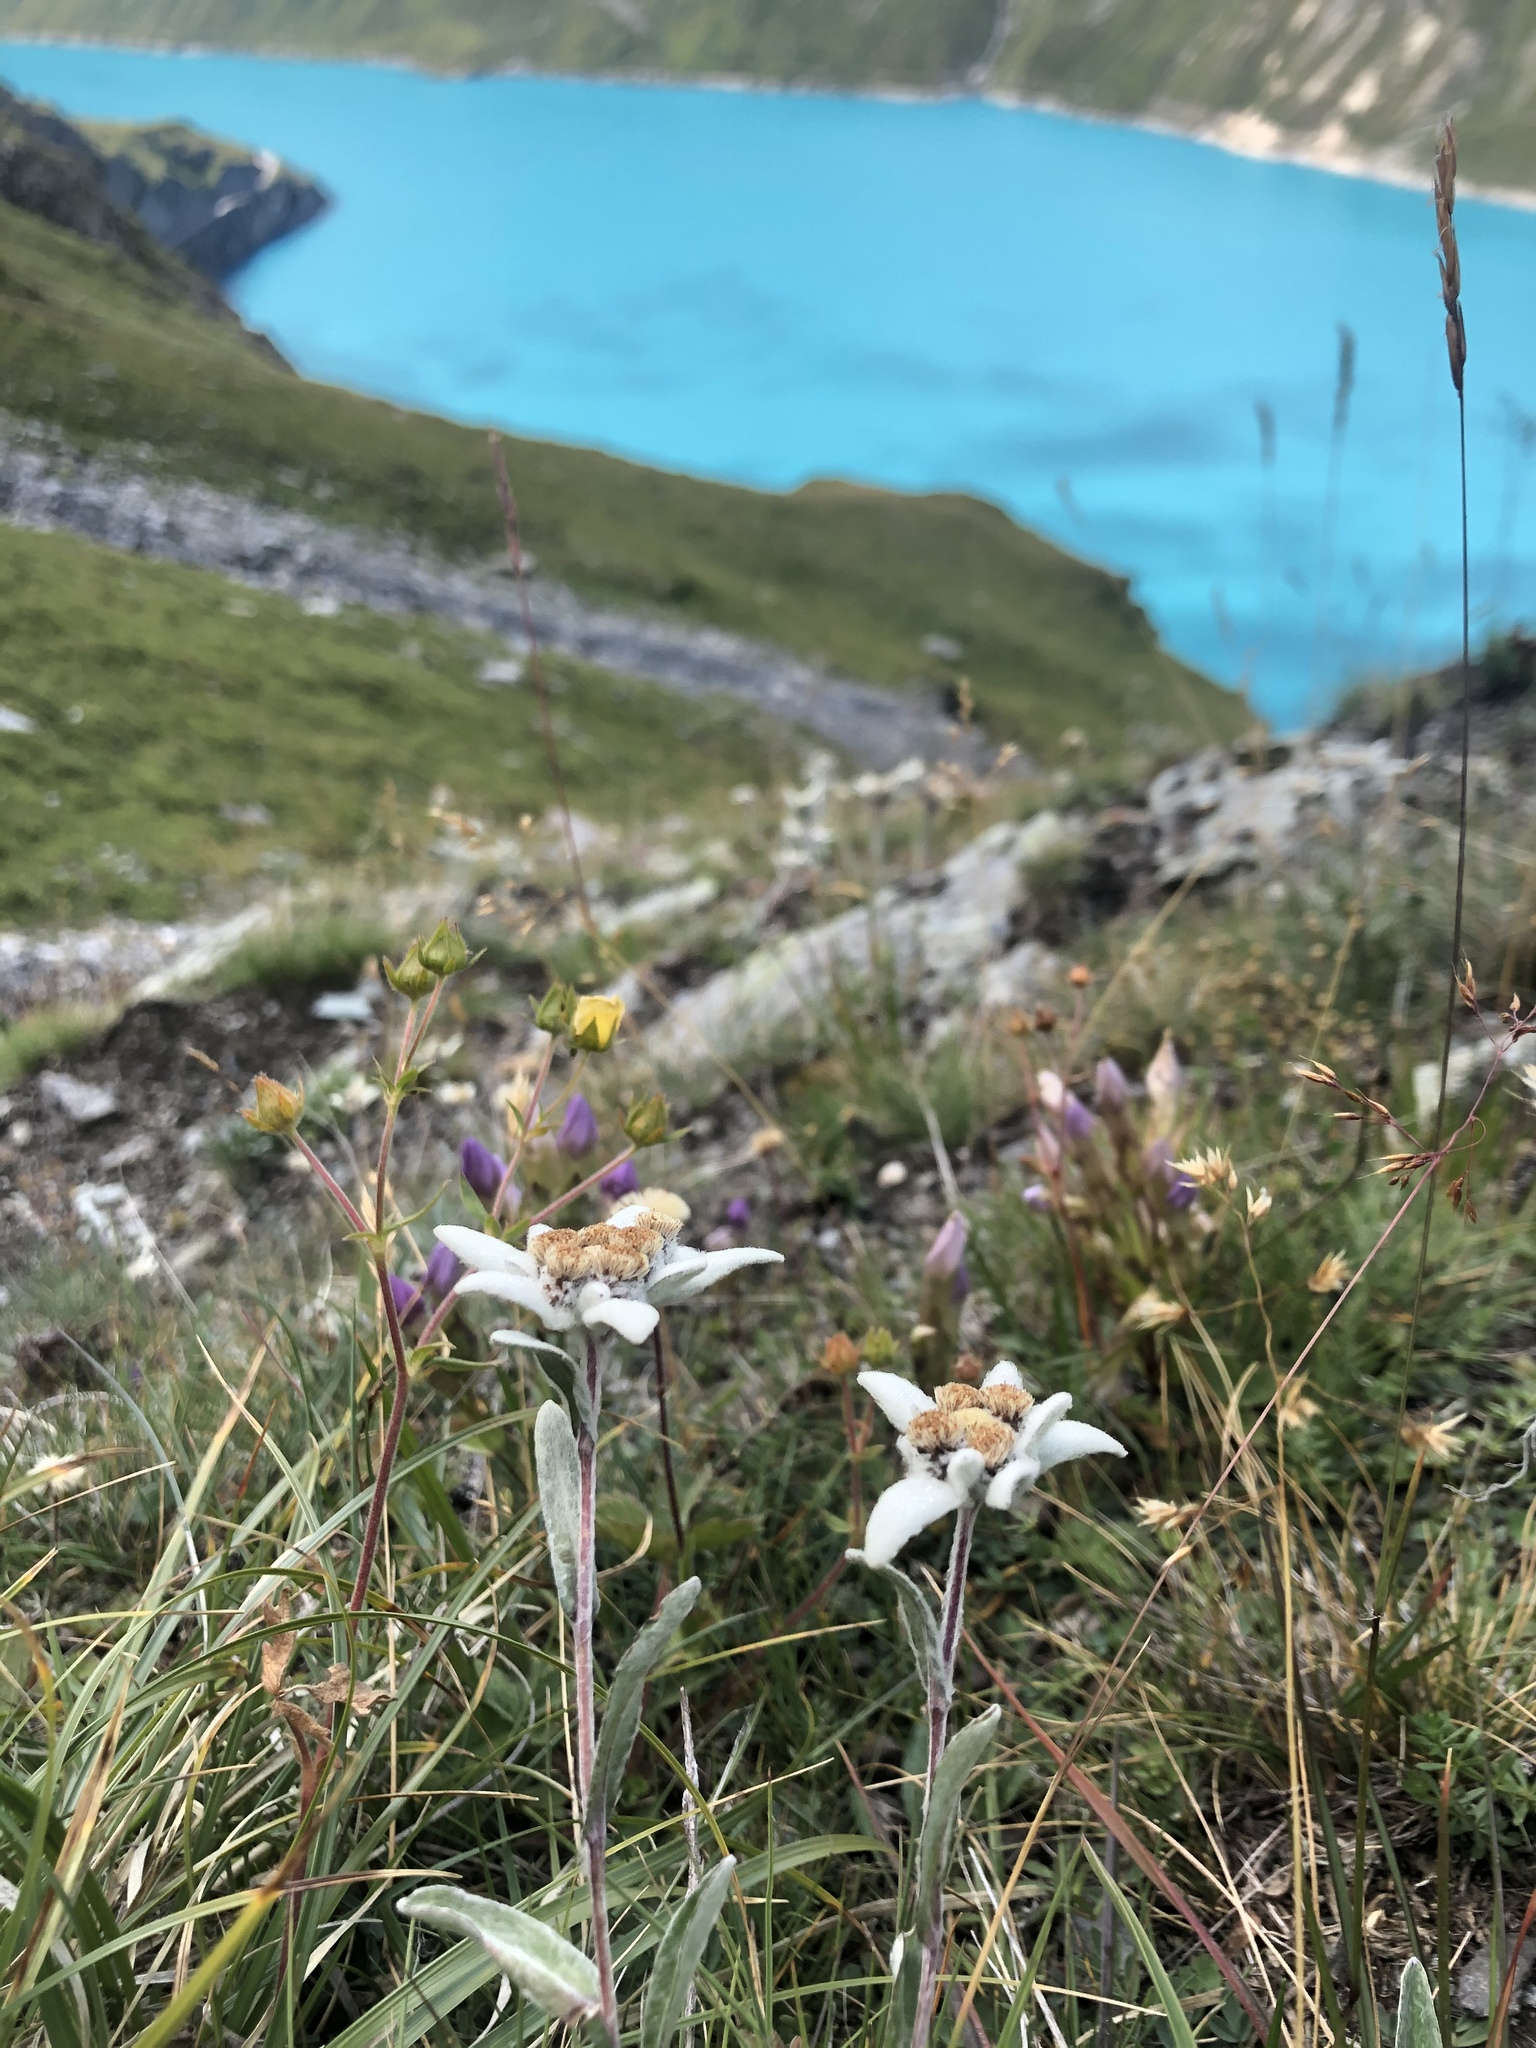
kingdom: Plantae
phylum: Tracheophyta
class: Magnoliopsida
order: Asterales
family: Asteraceae
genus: Leontopodium
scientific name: Leontopodium nivale
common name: Edelweiss
